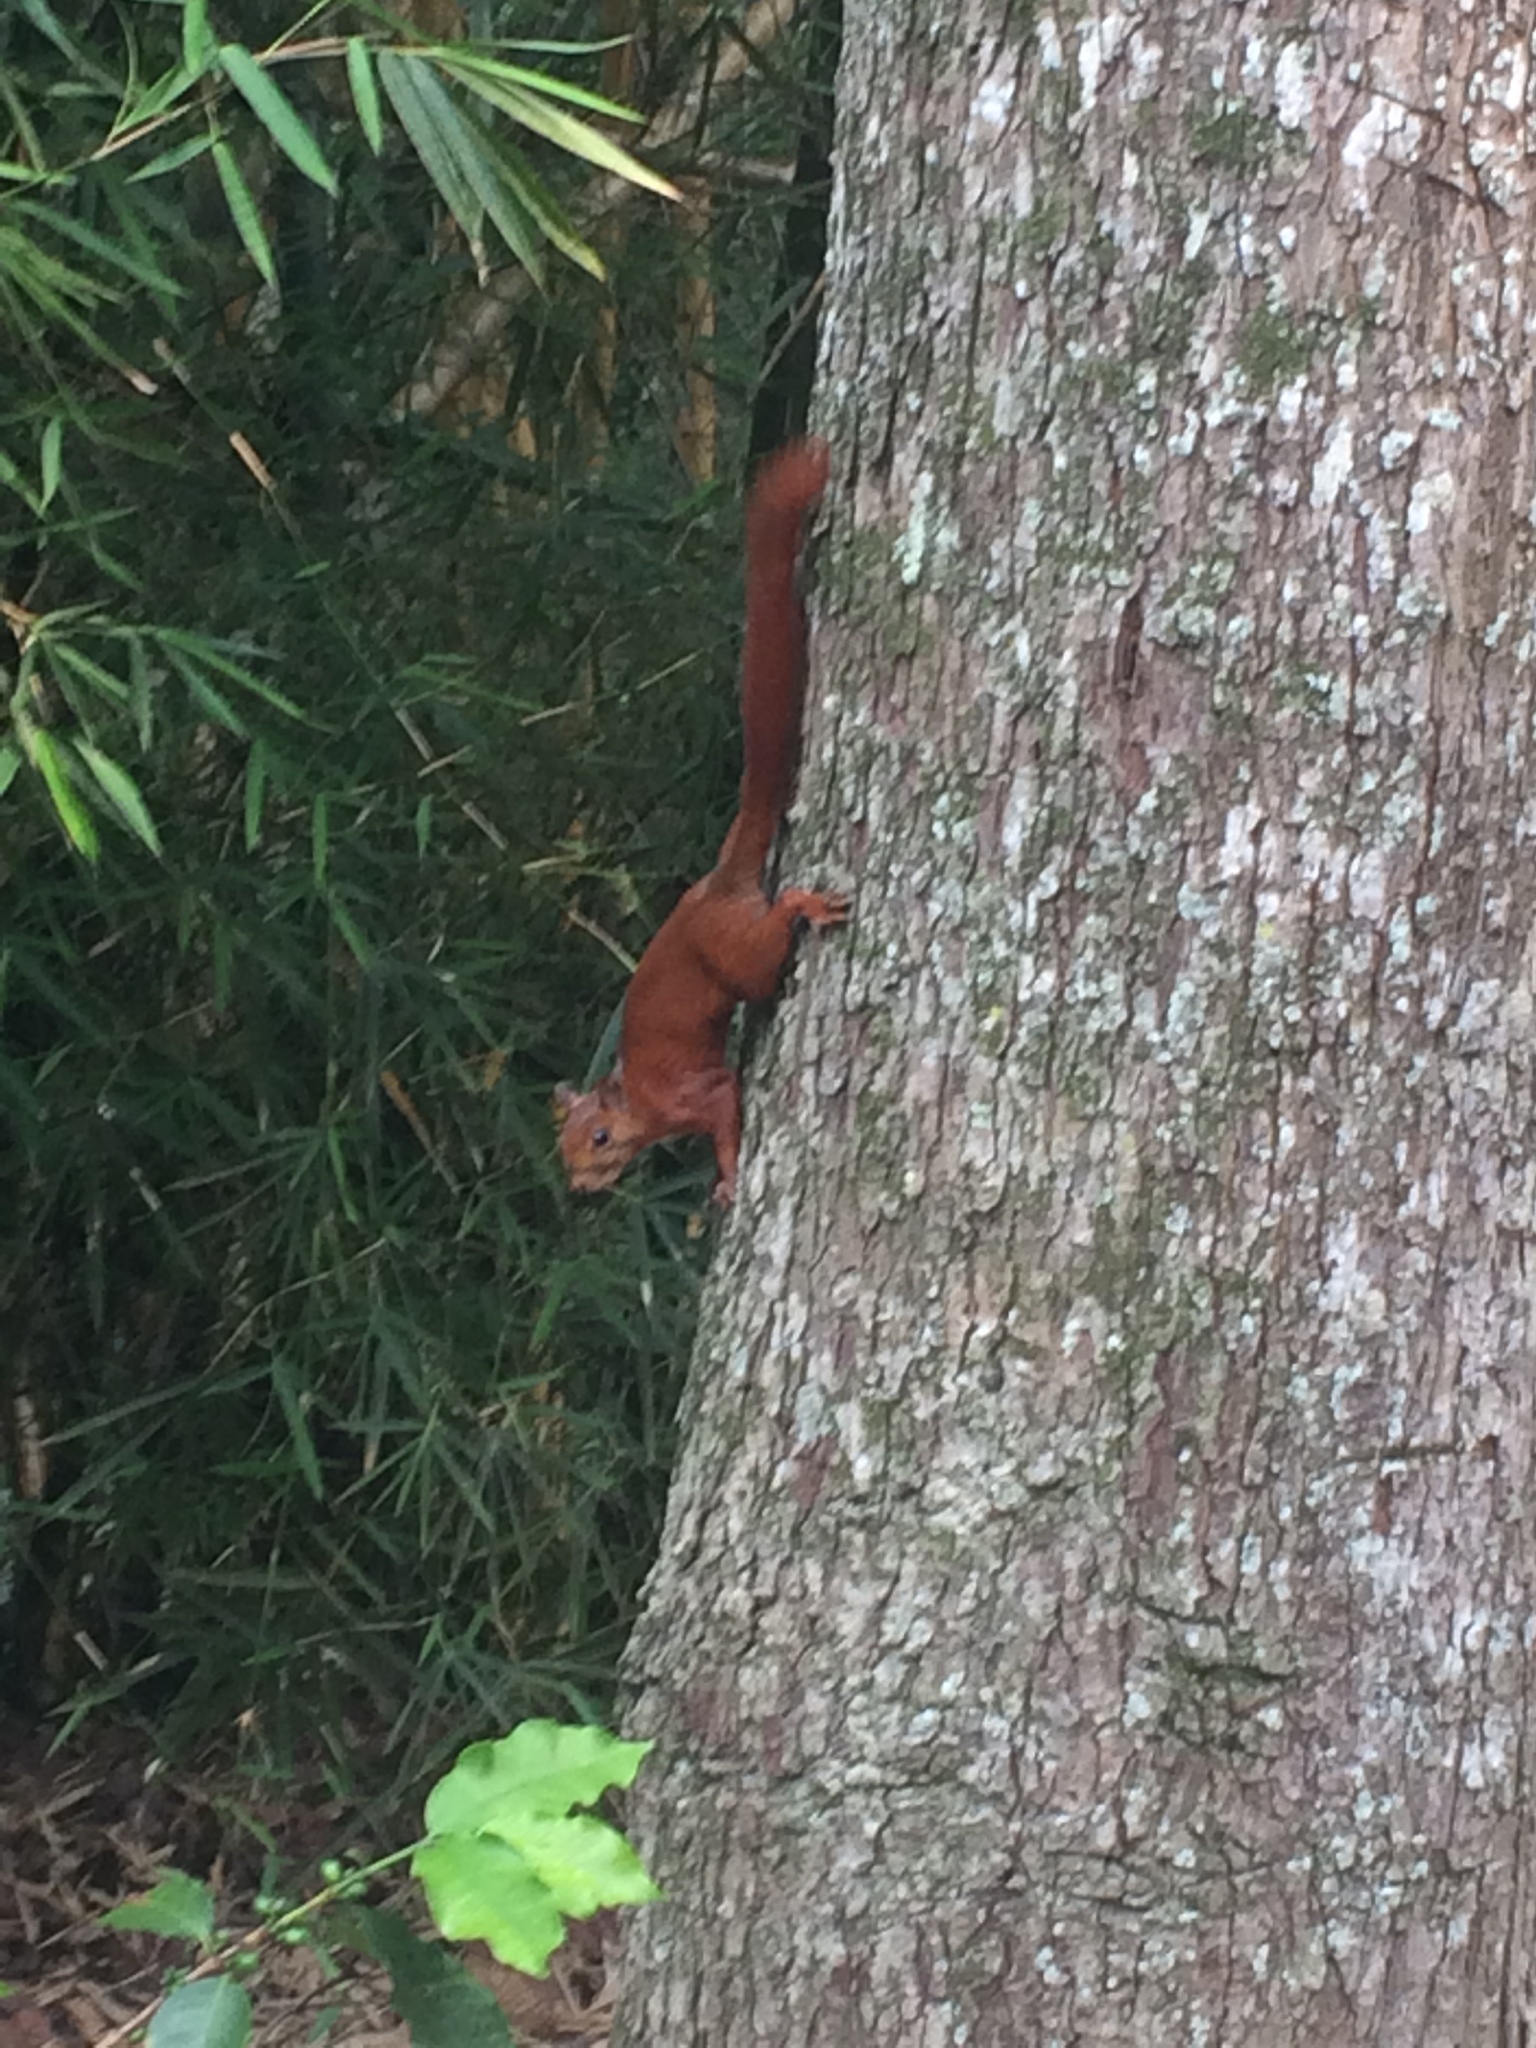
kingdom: Animalia
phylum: Chordata
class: Mammalia
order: Rodentia
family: Sciuridae
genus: Sciurus
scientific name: Sciurus granatensis
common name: Red-tailed squirrel
